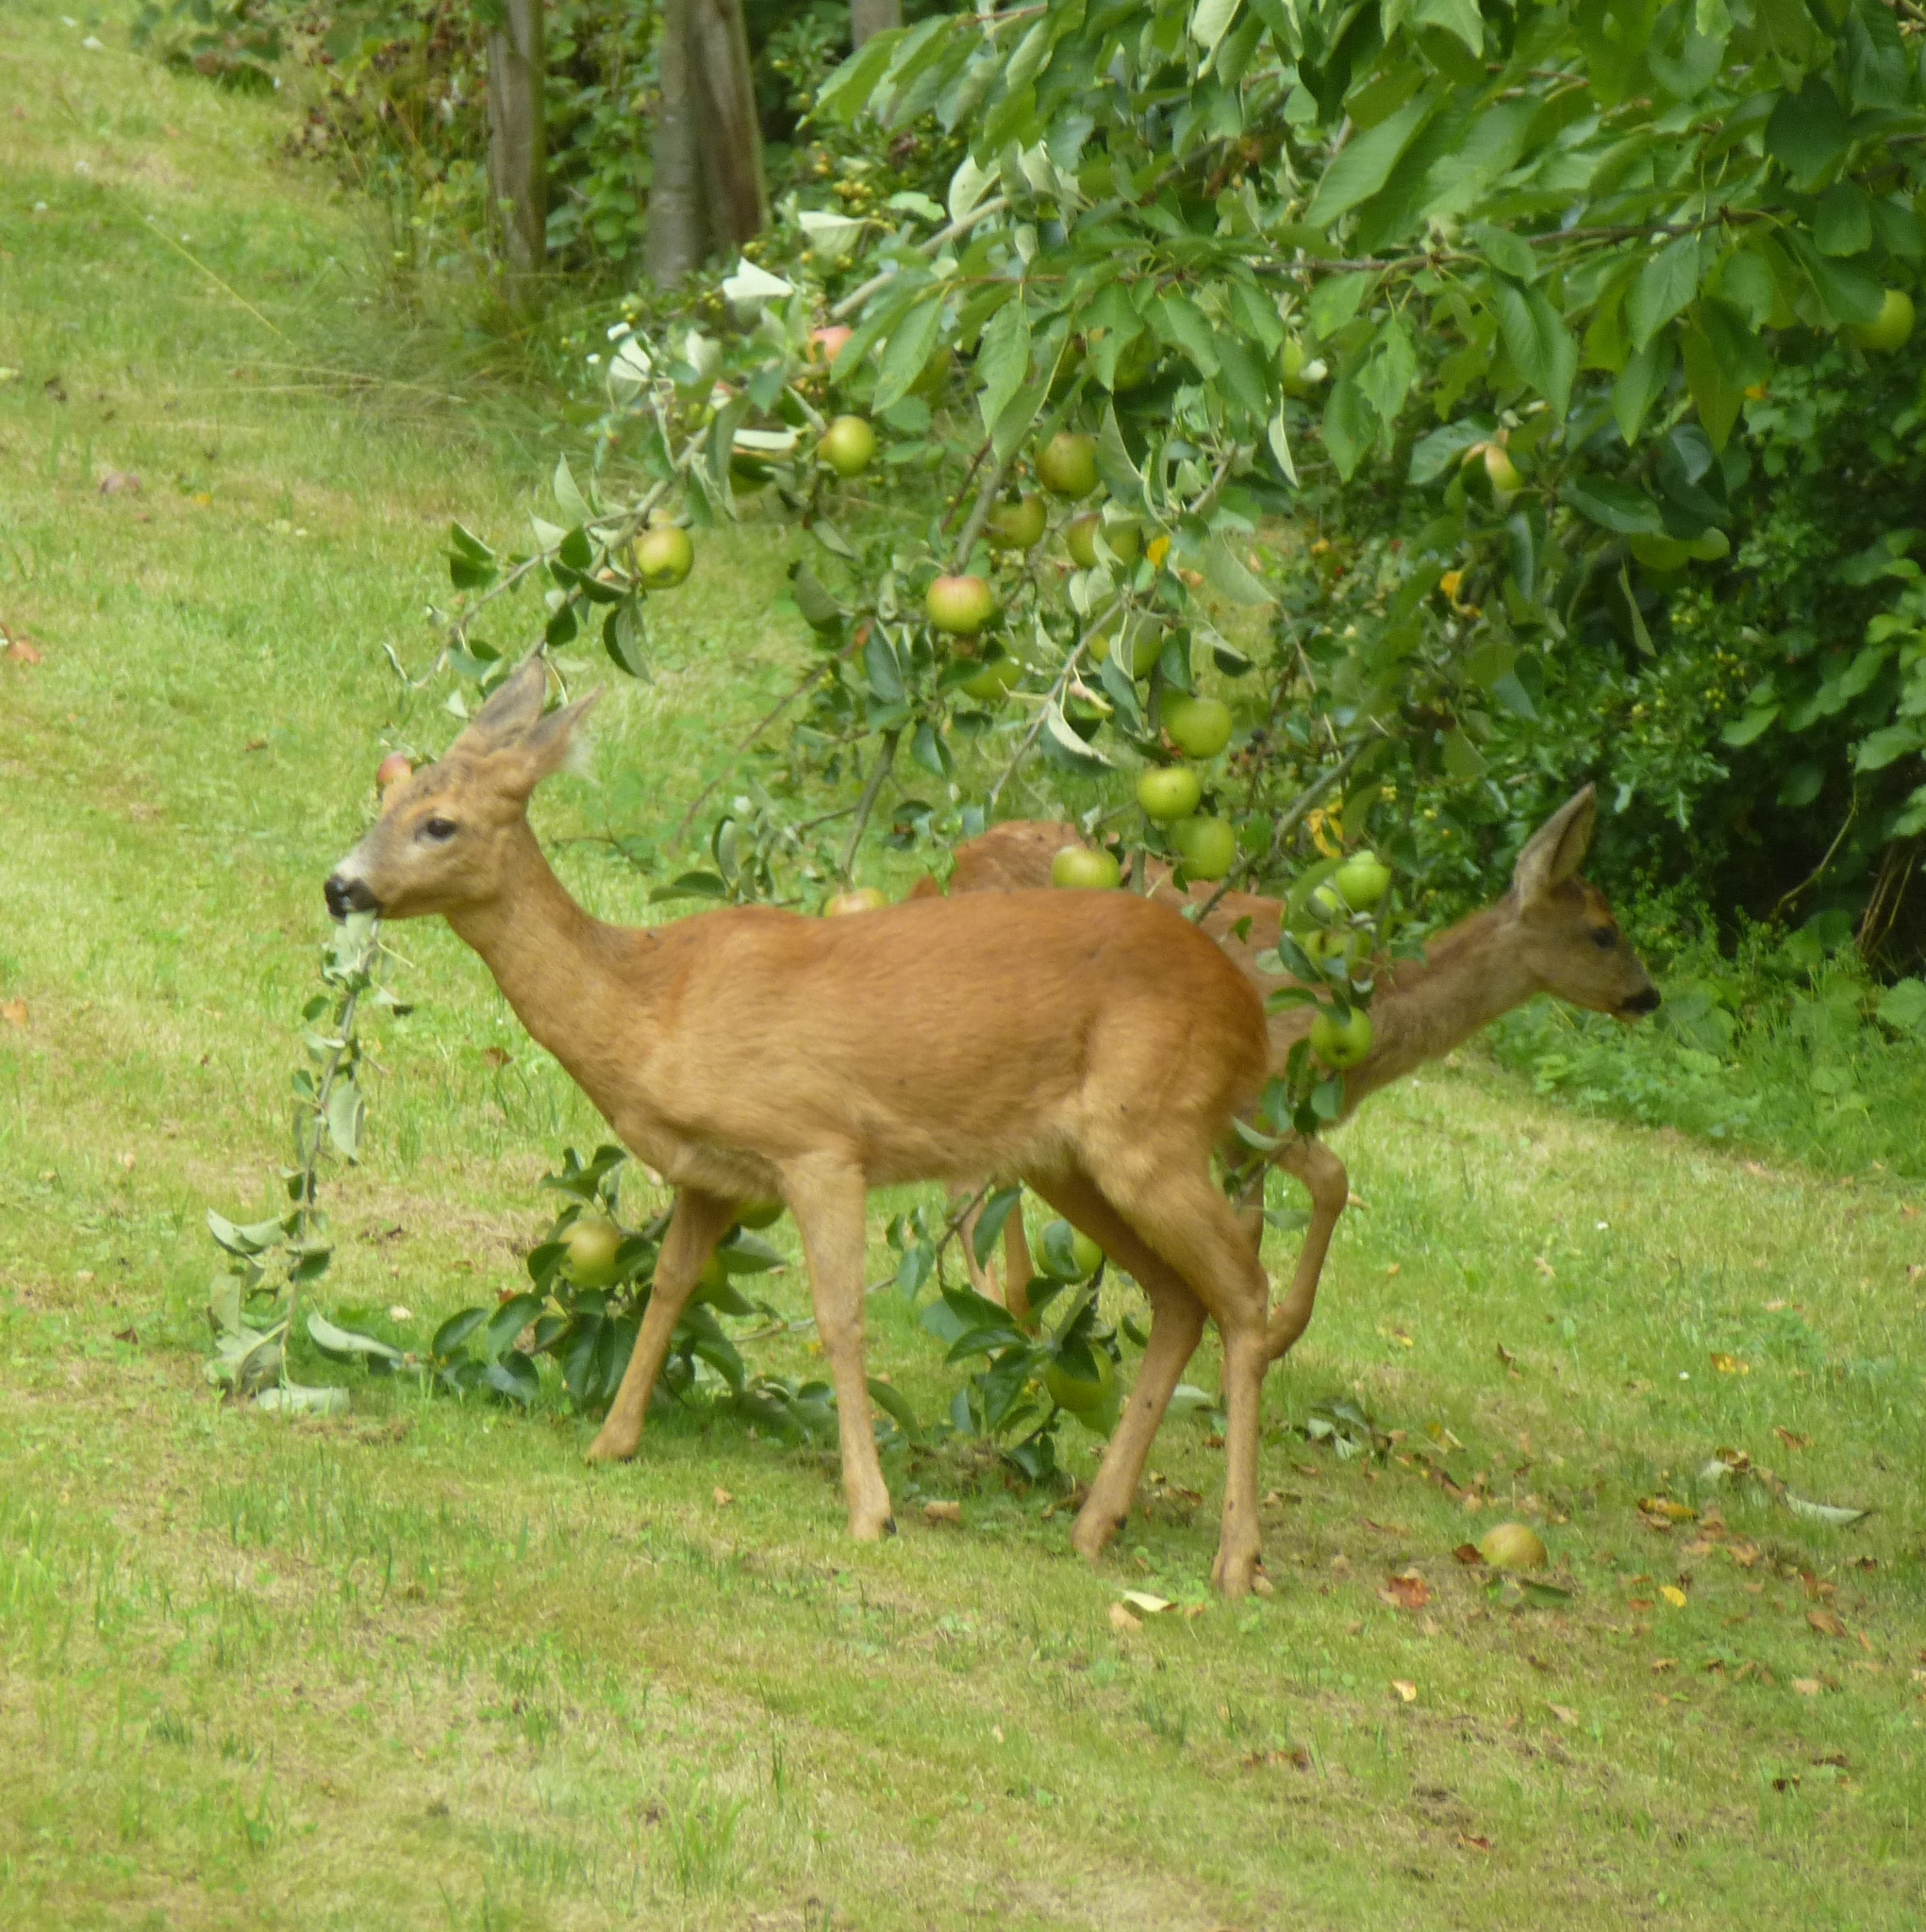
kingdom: Animalia
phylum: Chordata
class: Mammalia
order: Artiodactyla
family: Cervidae
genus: Capreolus
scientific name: Capreolus capreolus
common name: Western roe deer
